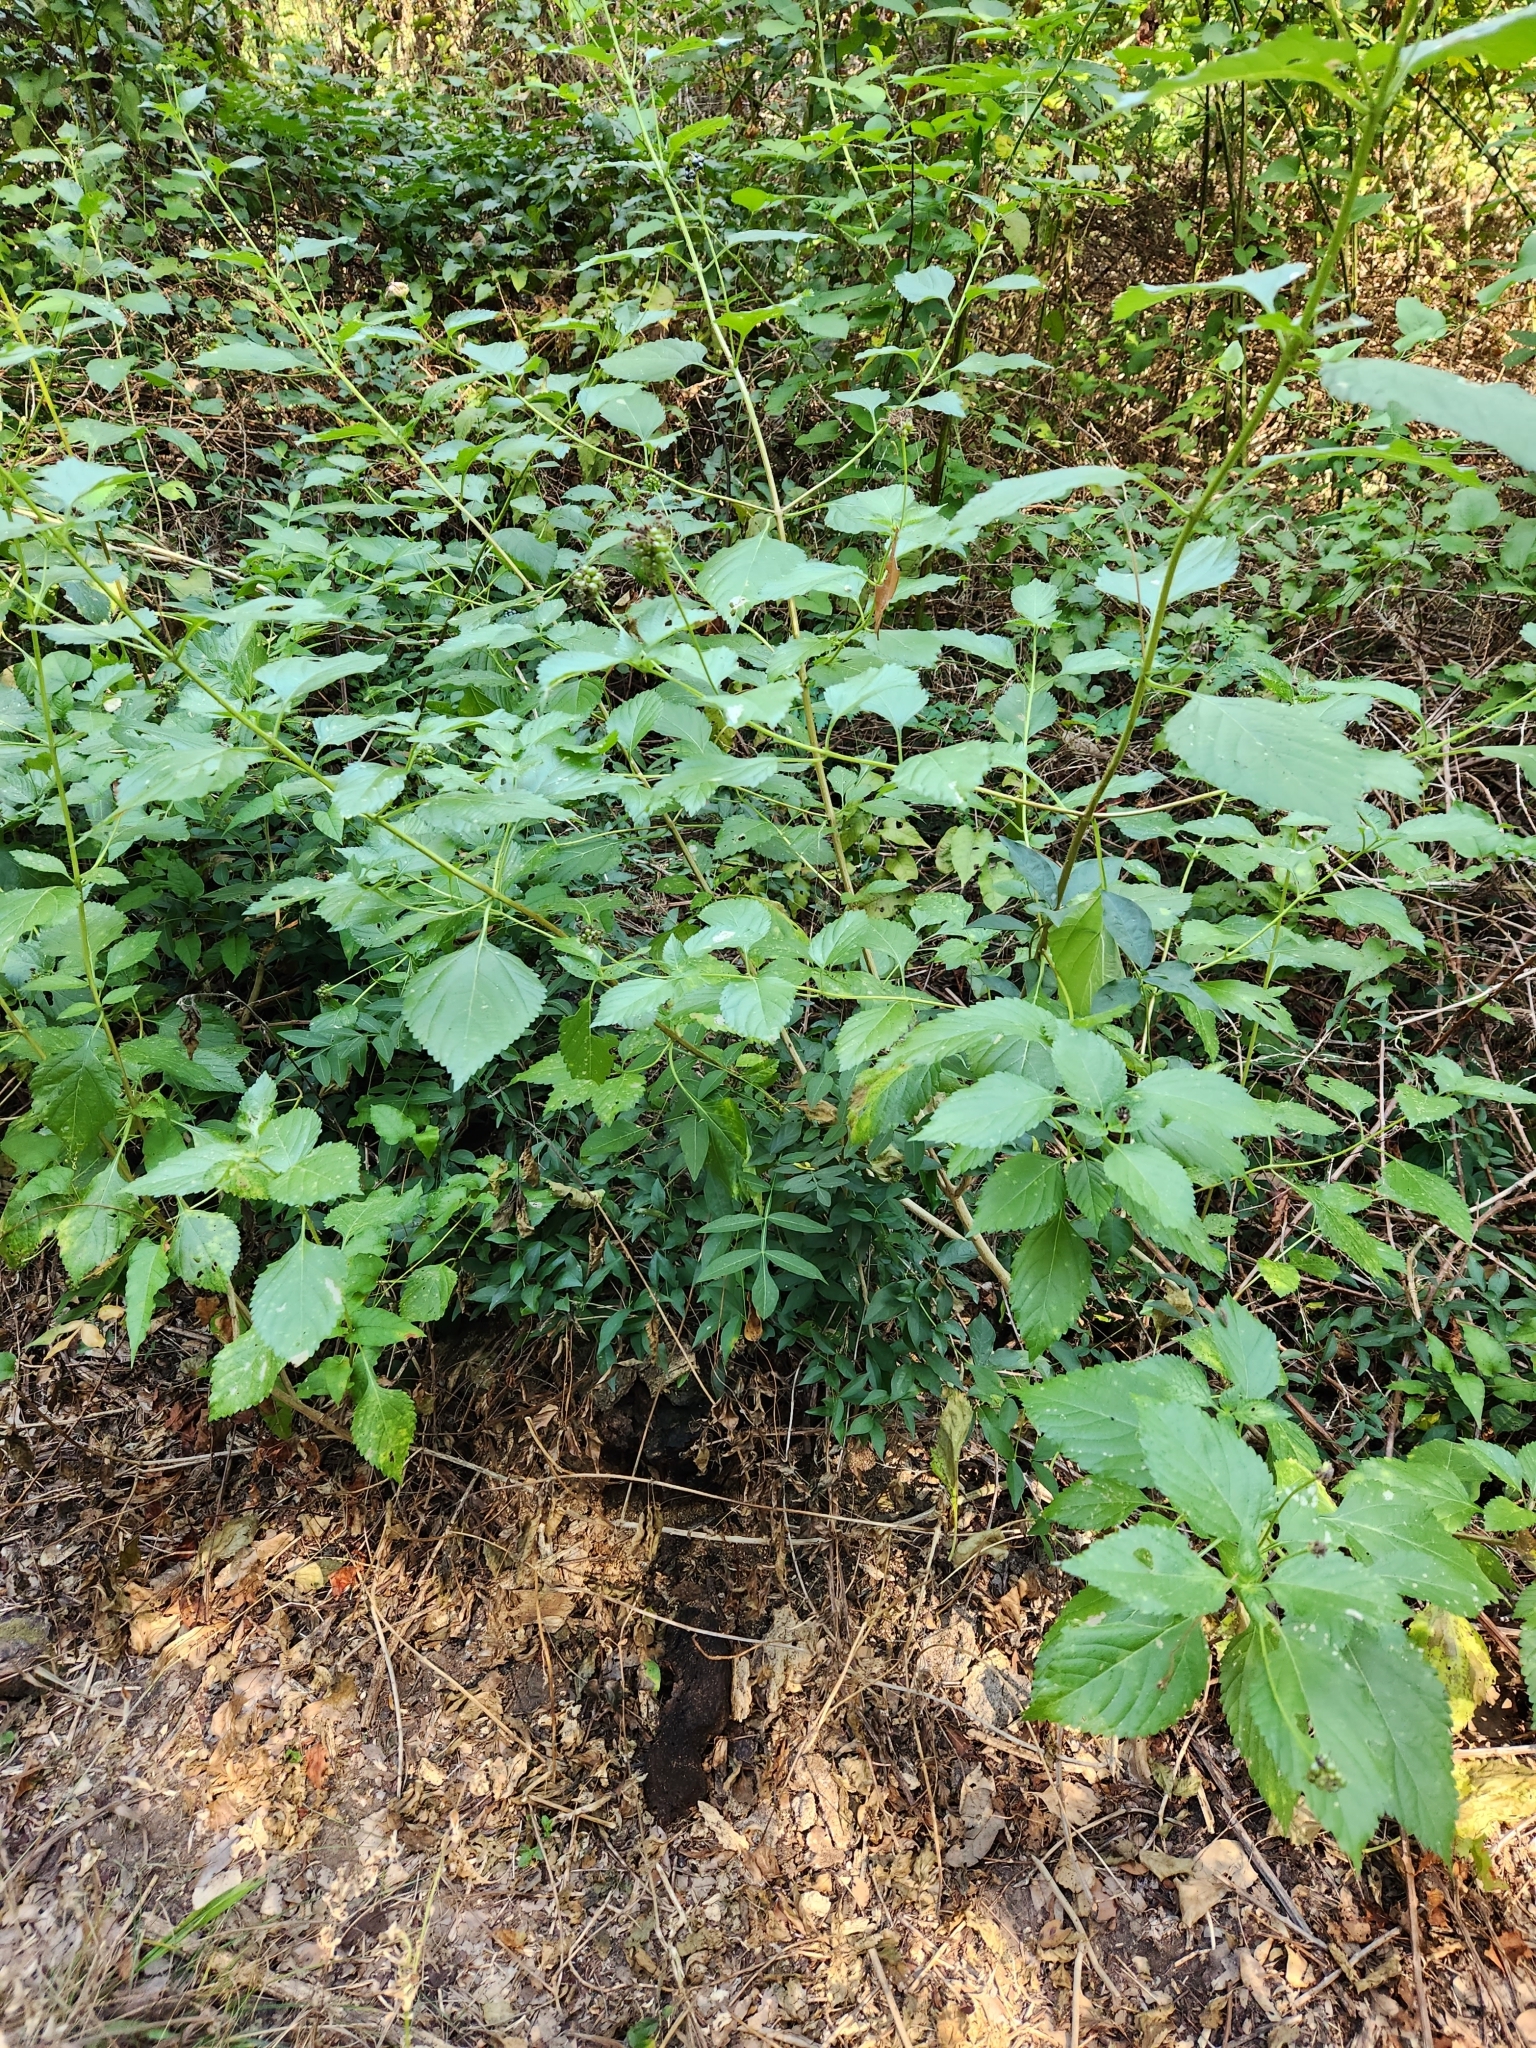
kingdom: Plantae
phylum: Tracheophyta
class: Magnoliopsida
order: Lamiales
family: Verbenaceae
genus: Lantana
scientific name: Lantana strigocamara
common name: Lantana
